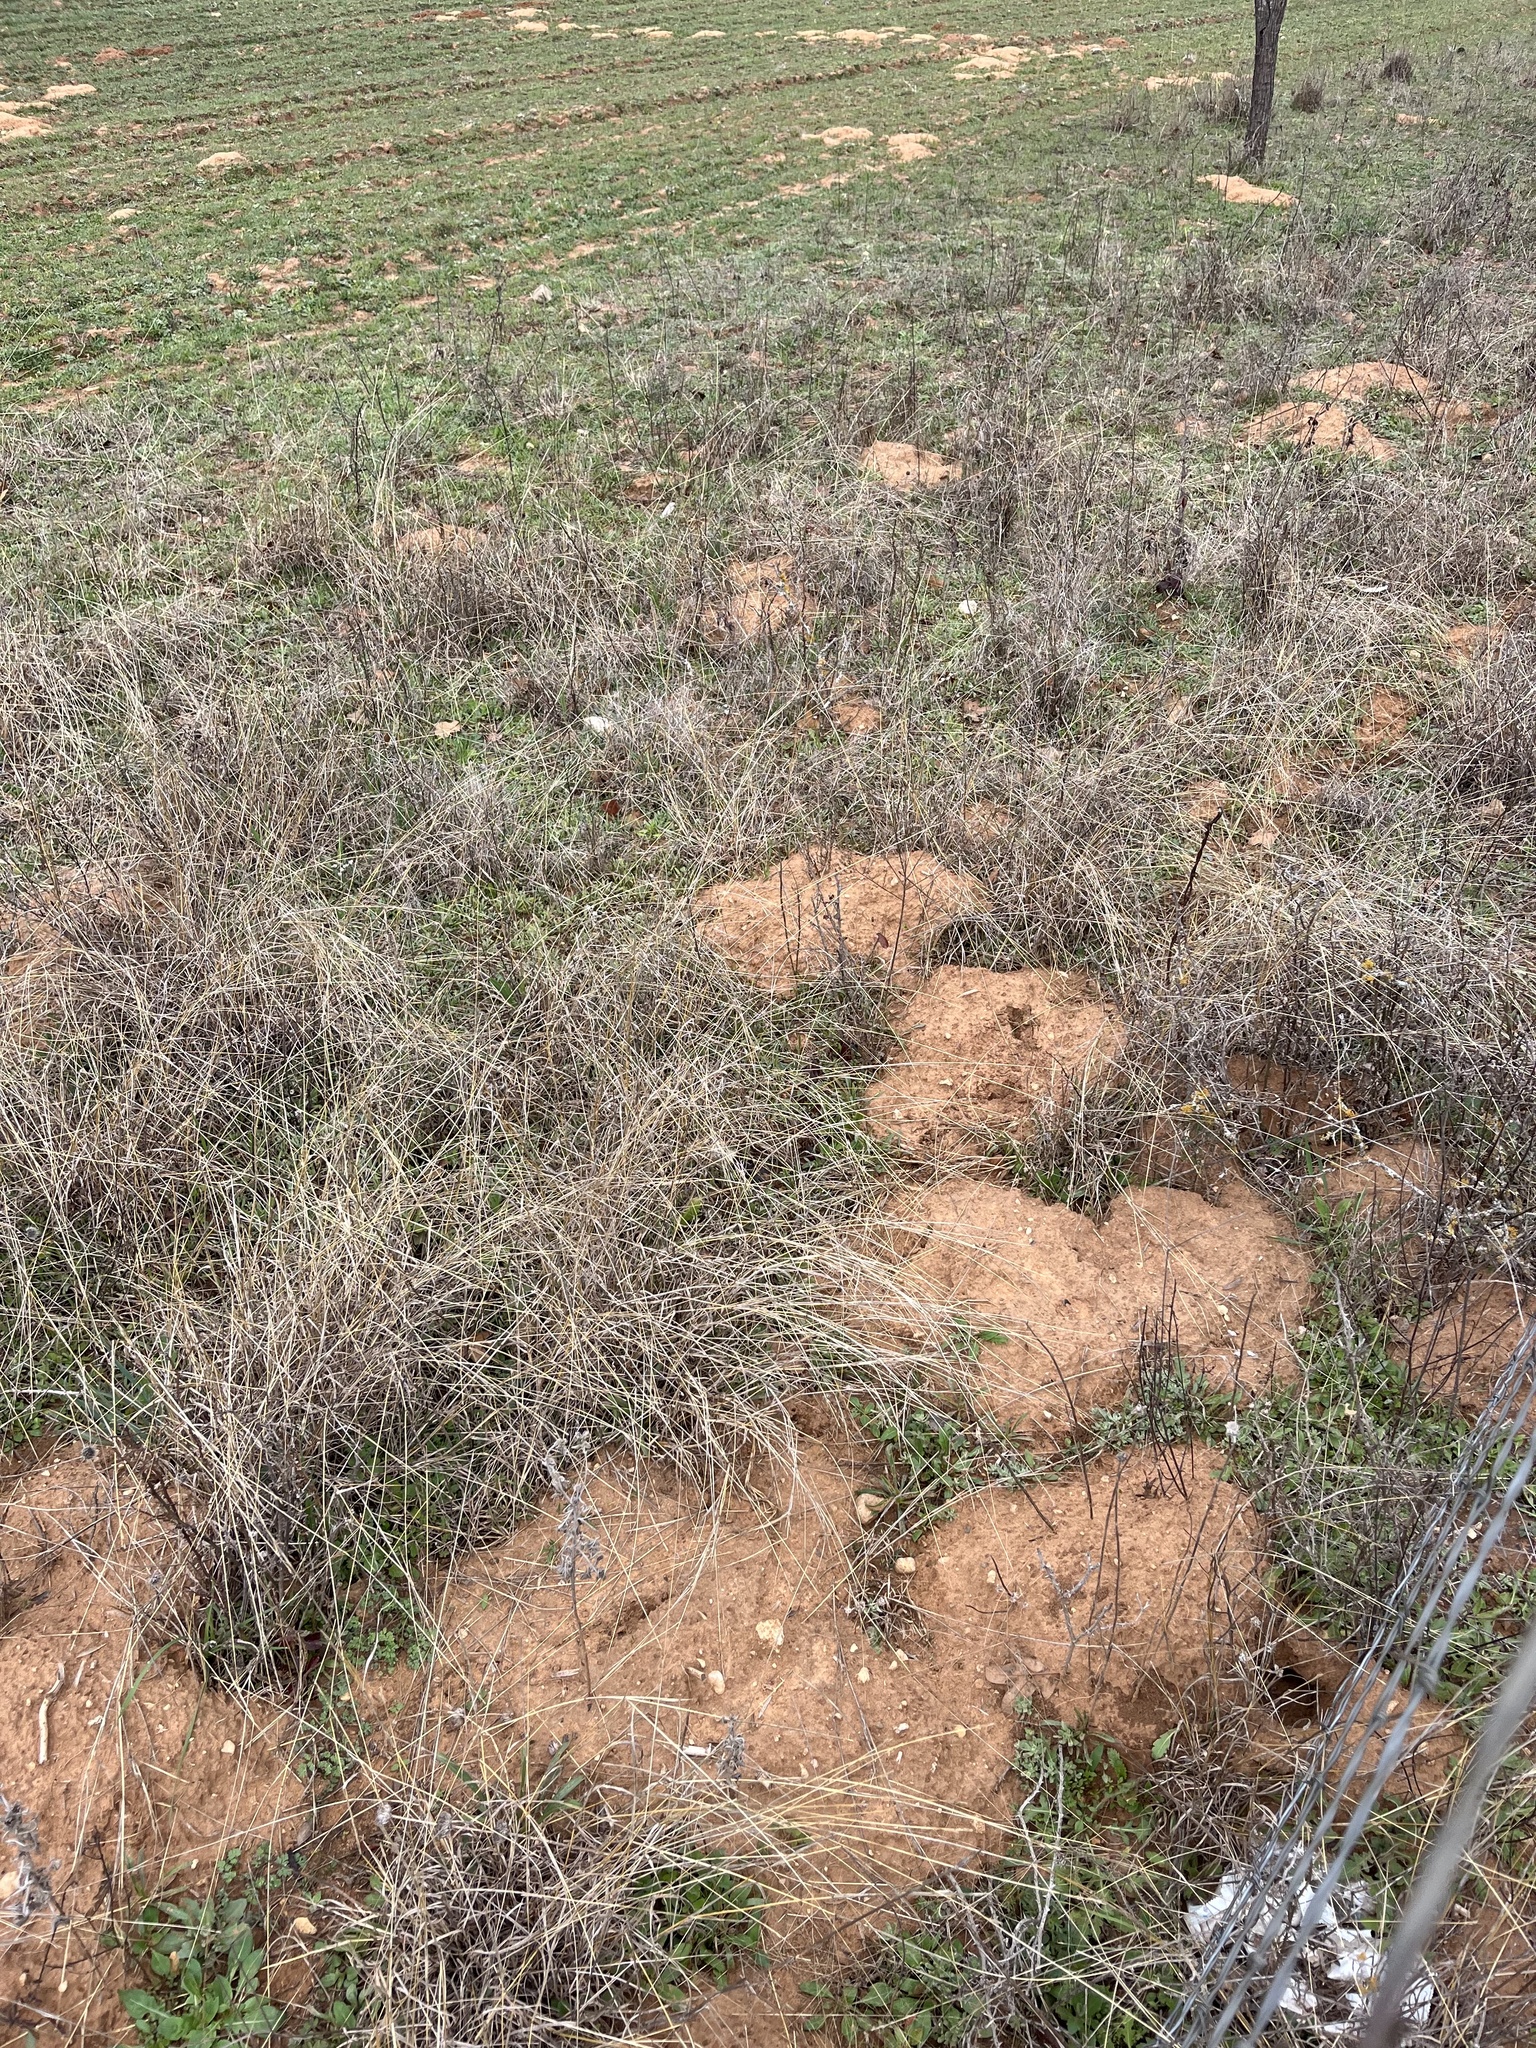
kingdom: Animalia
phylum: Chordata
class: Mammalia
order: Rodentia
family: Geomyidae
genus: Geomys
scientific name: Geomys texensis
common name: Llano pocket gopher
